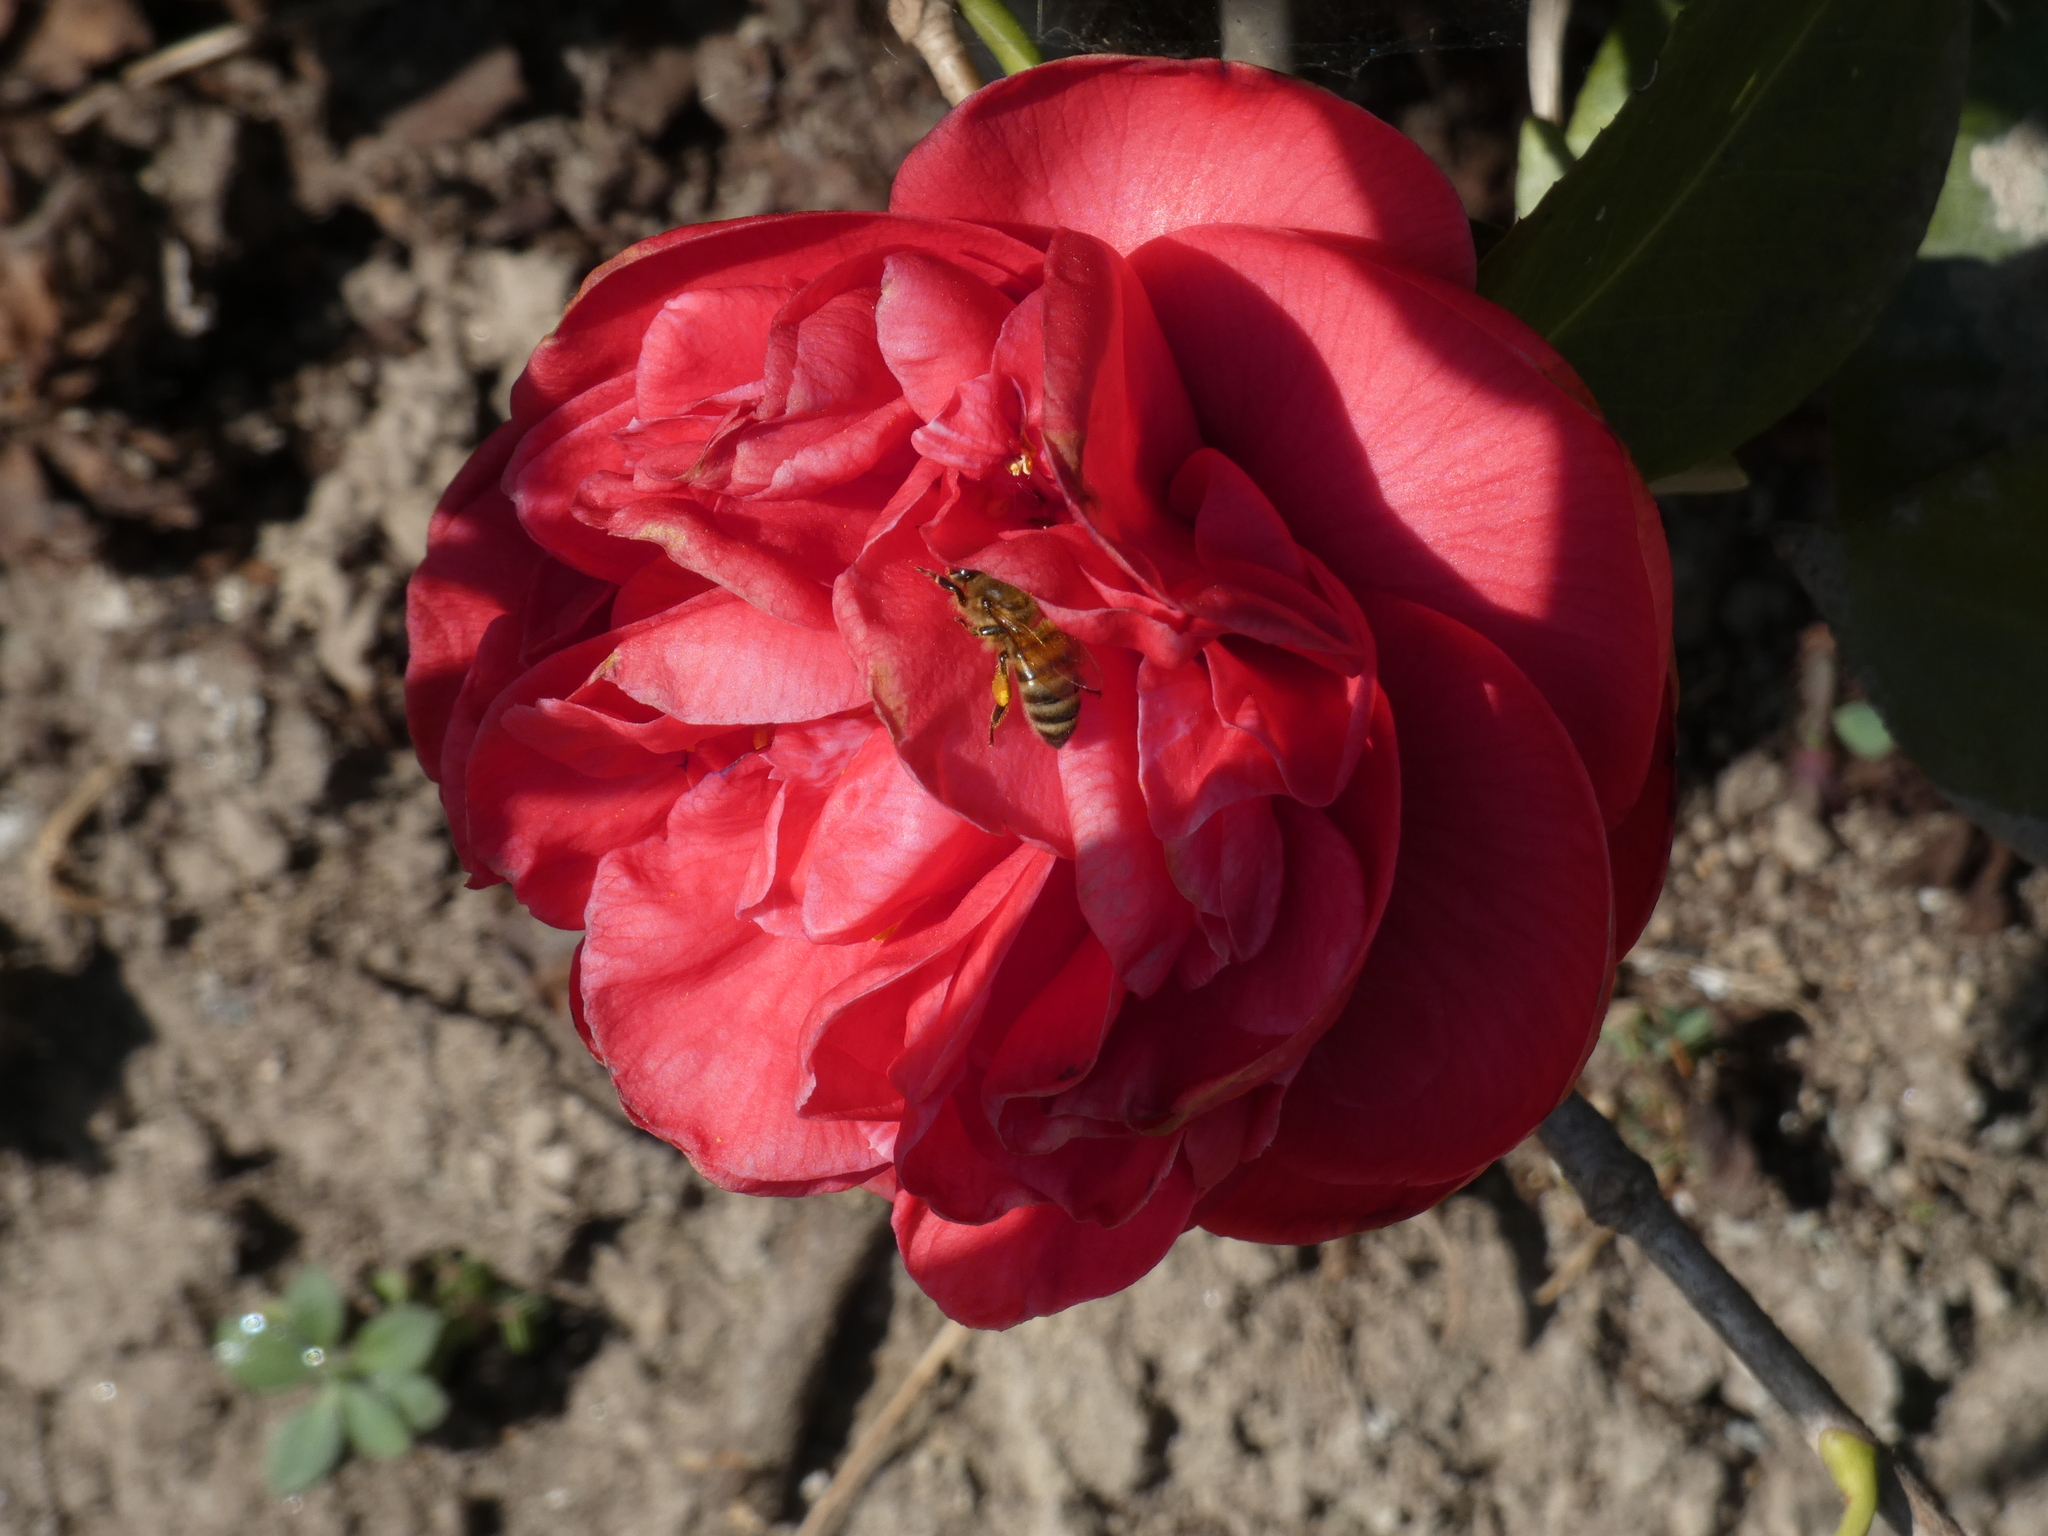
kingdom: Animalia
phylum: Arthropoda
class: Insecta
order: Hymenoptera
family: Apidae
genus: Apis
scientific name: Apis mellifera
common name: Honey bee
